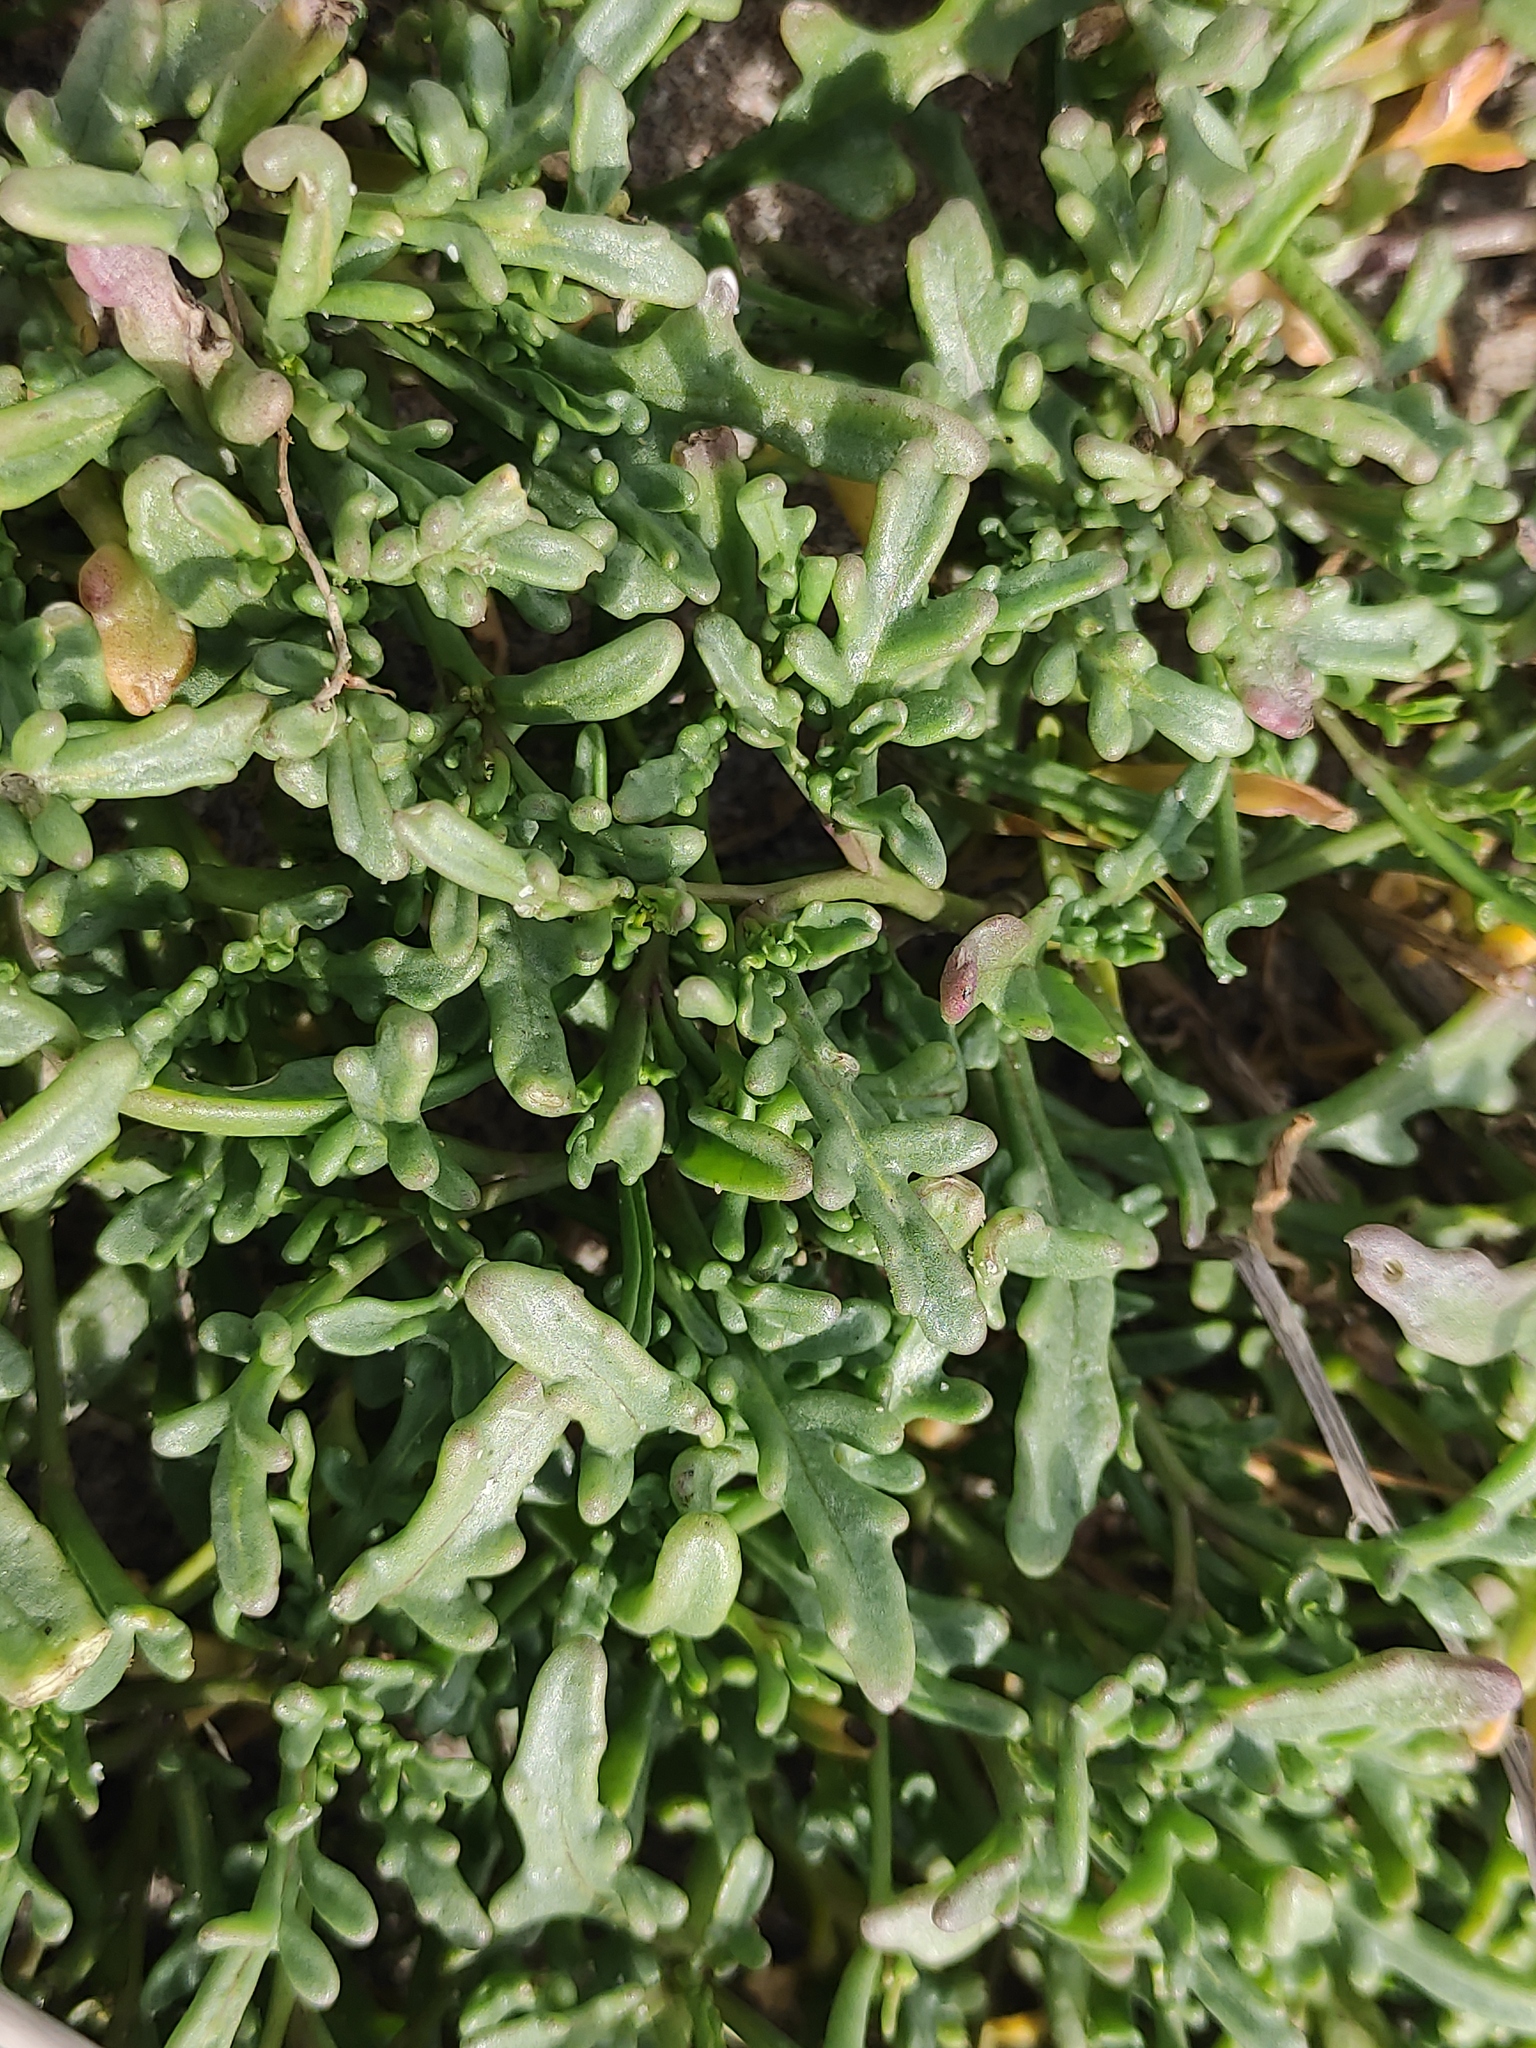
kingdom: Plantae
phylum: Tracheophyta
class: Magnoliopsida
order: Brassicales
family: Brassicaceae
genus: Cakile
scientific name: Cakile maritima
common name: Sea rocket
